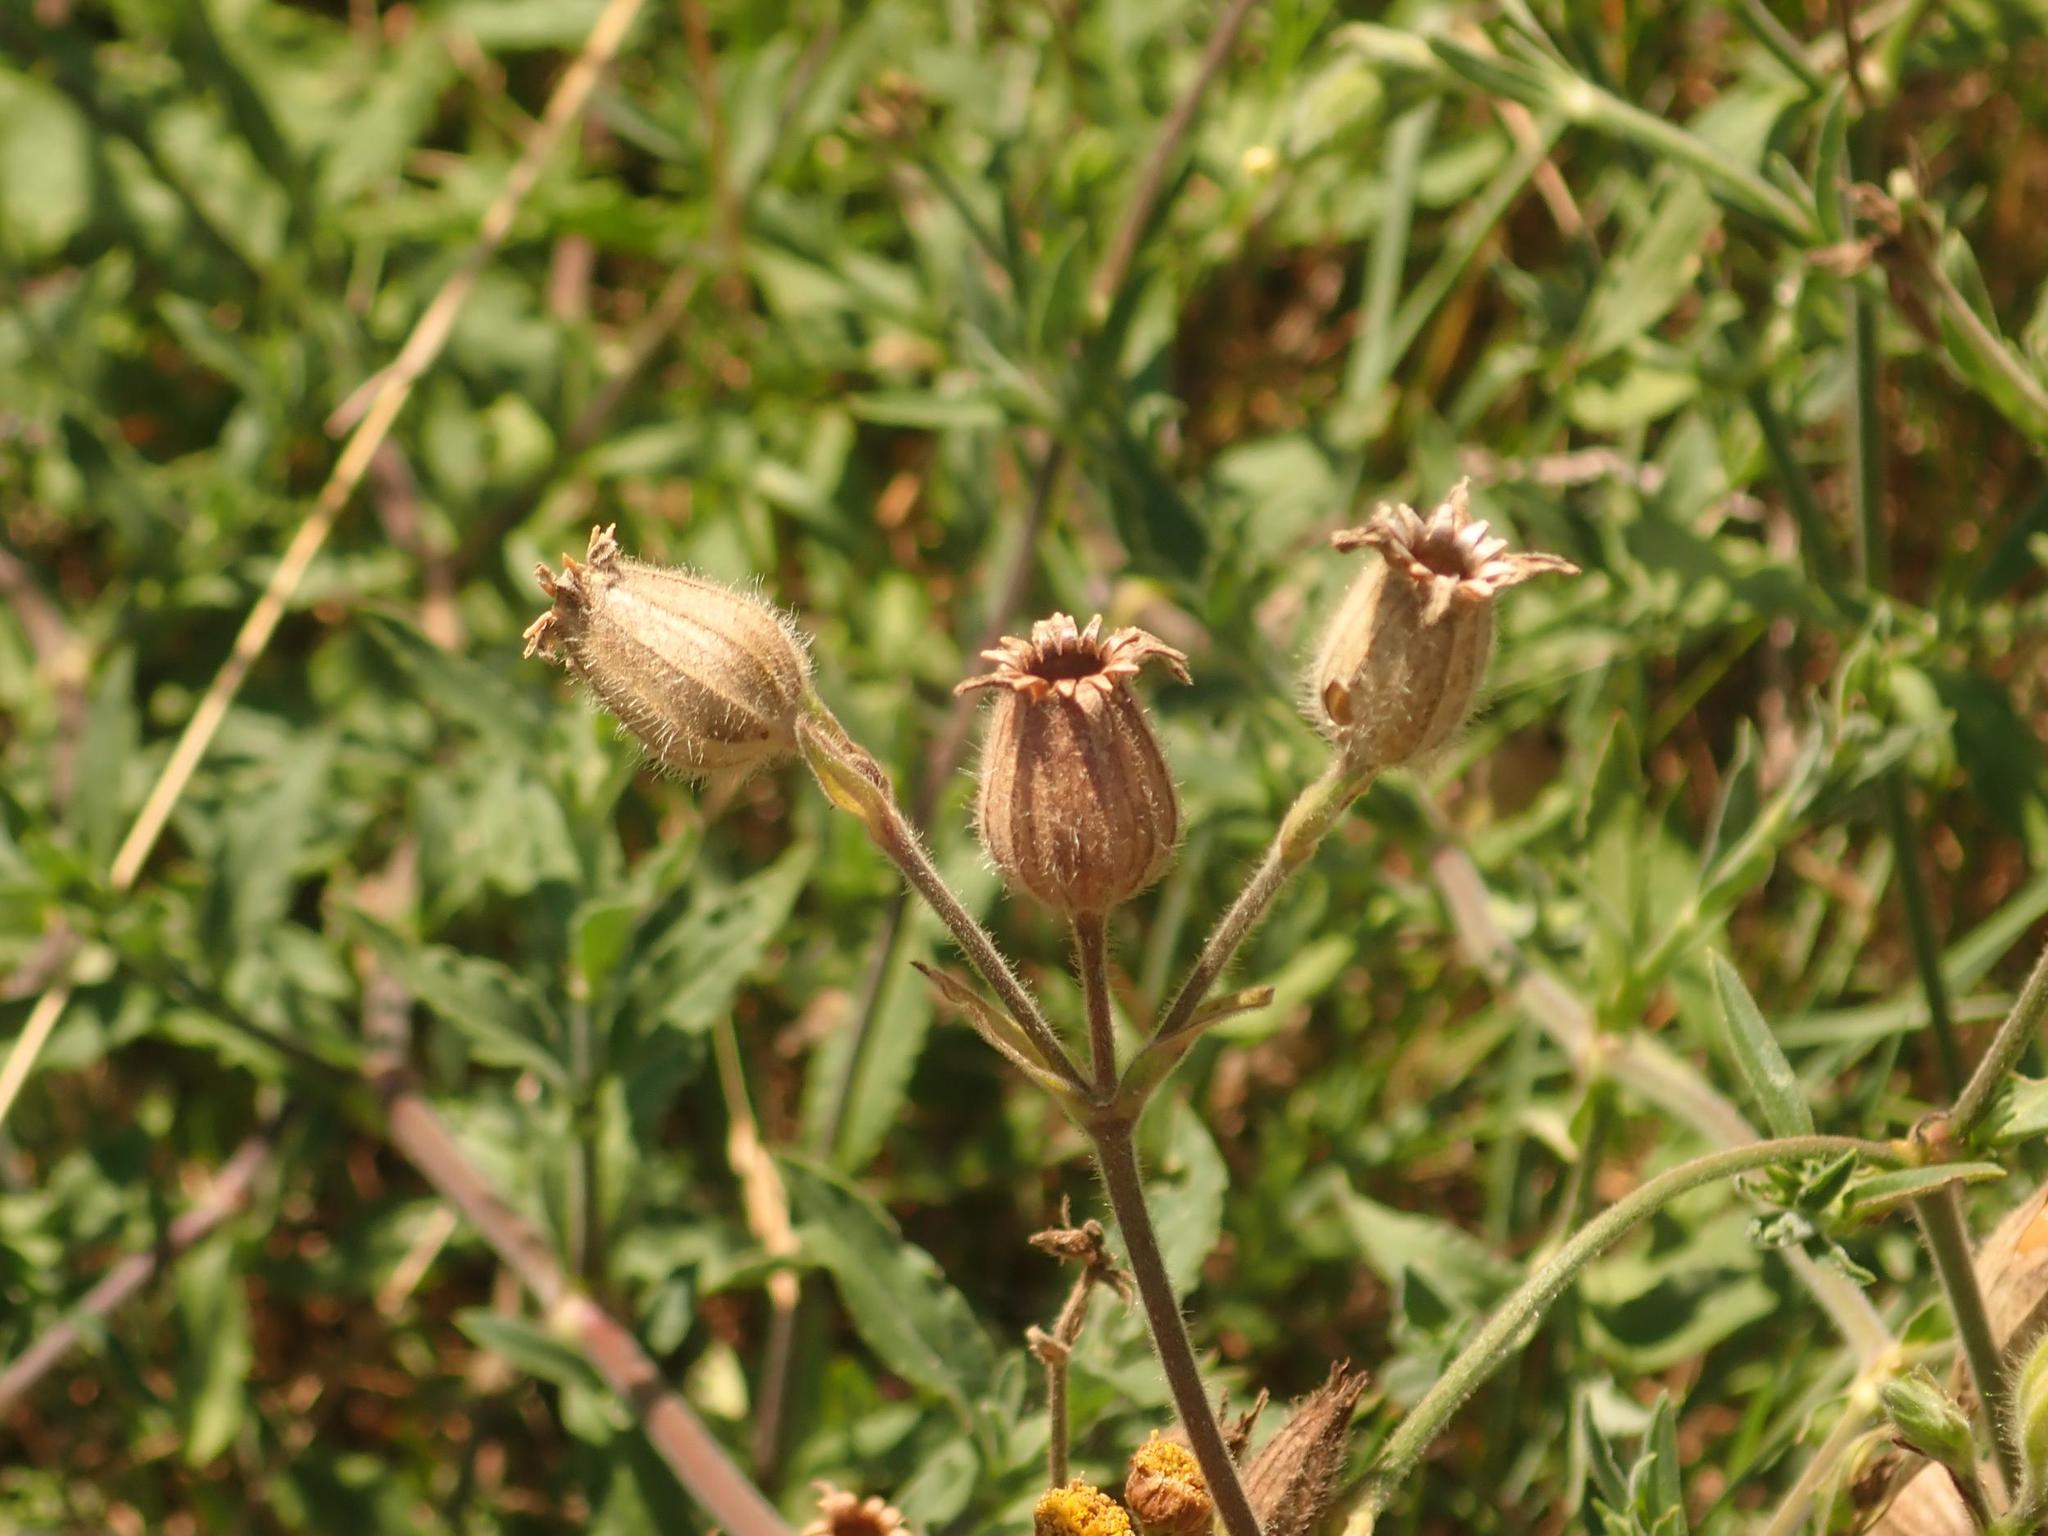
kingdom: Plantae
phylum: Tracheophyta
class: Magnoliopsida
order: Caryophyllales
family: Caryophyllaceae
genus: Silene
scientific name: Silene dioica
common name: Red campion
